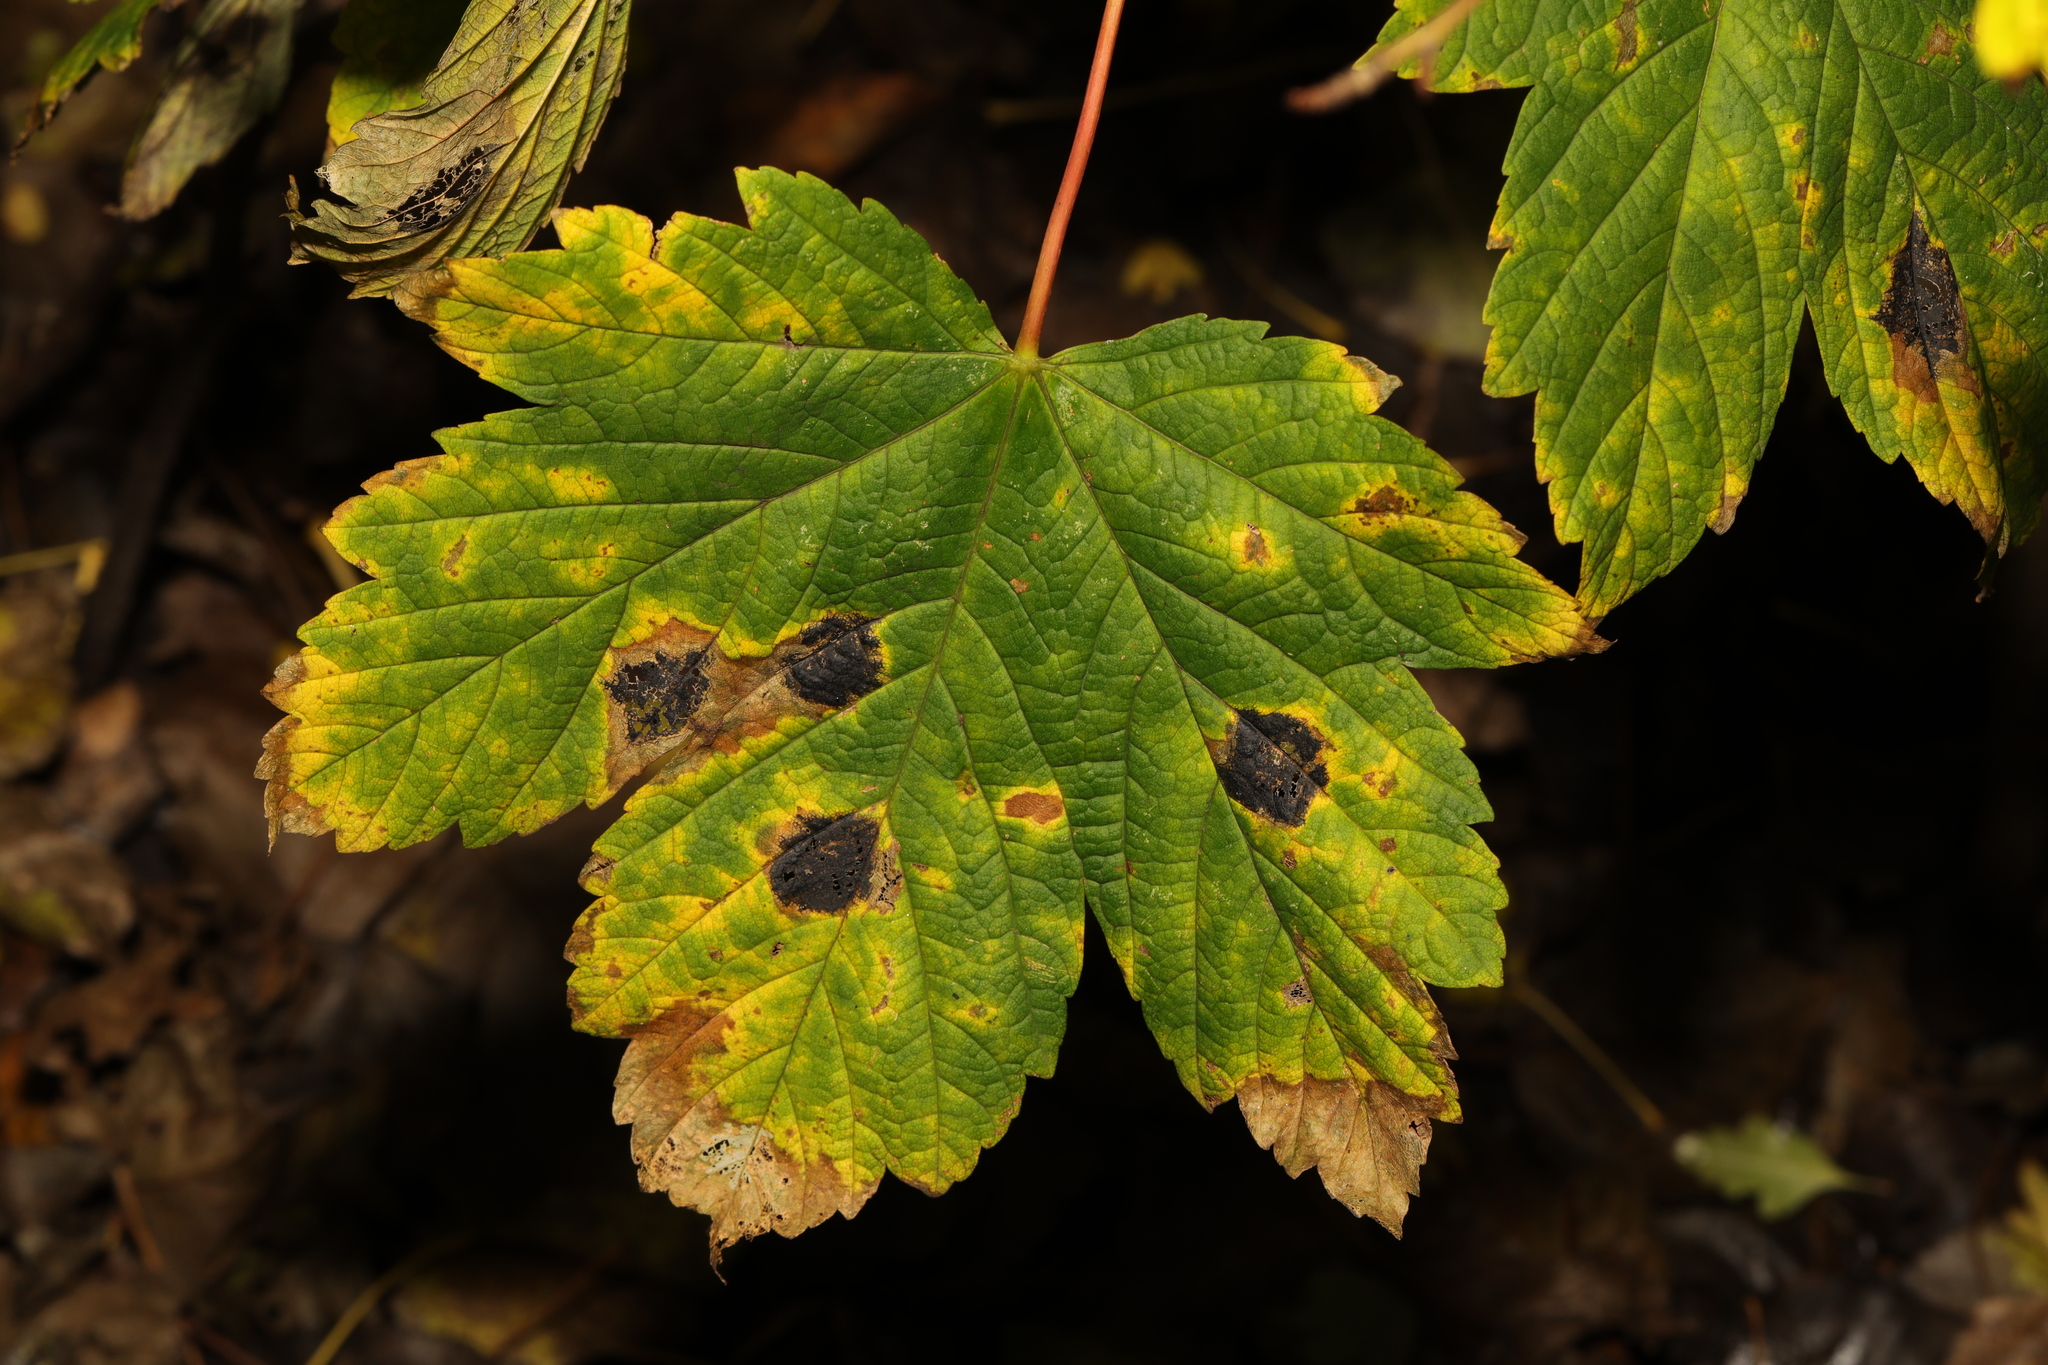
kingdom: Plantae
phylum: Tracheophyta
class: Magnoliopsida
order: Sapindales
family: Sapindaceae
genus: Acer
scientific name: Acer pseudoplatanus
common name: Sycamore
